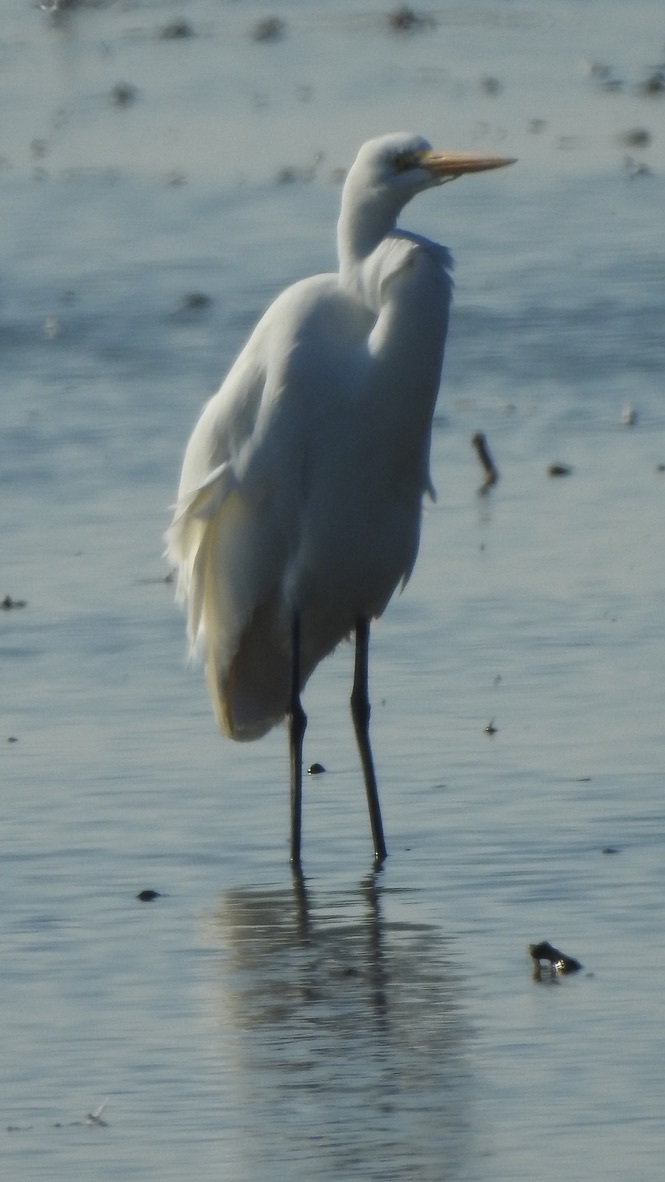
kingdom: Animalia
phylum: Chordata
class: Aves
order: Pelecaniformes
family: Ardeidae
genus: Ardea
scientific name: Ardea alba
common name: Great egret
